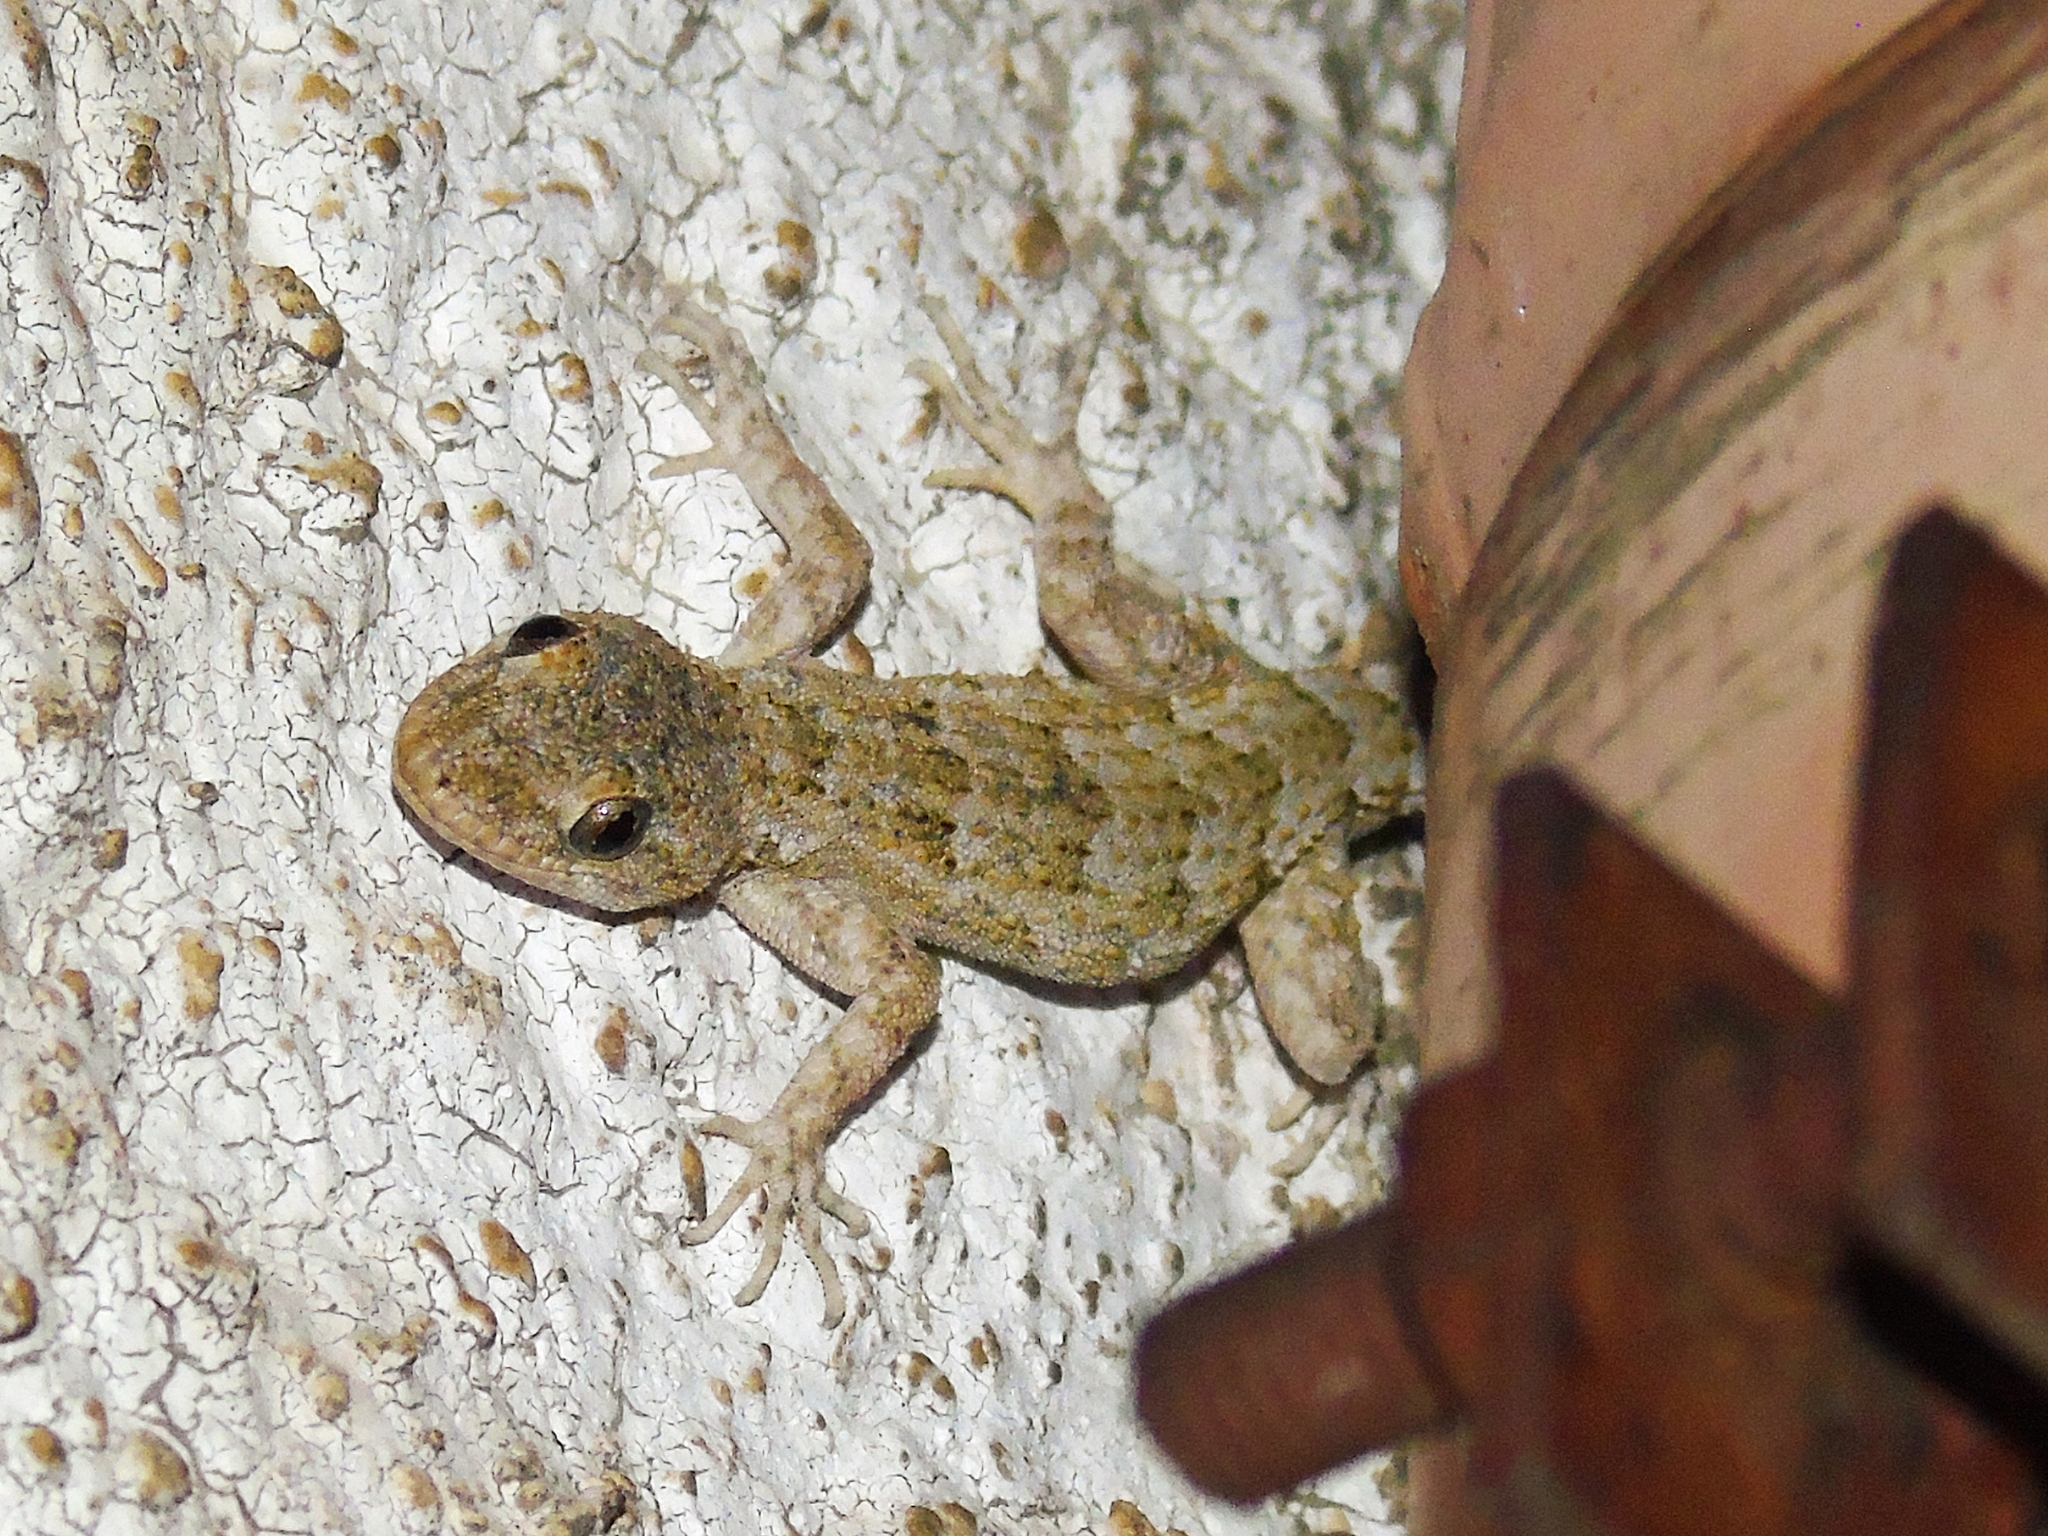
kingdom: Animalia
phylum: Chordata
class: Squamata
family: Gekkonidae
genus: Mediodactylus
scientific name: Mediodactylus danilewskii
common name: Bulgarian bent-toed gecko
